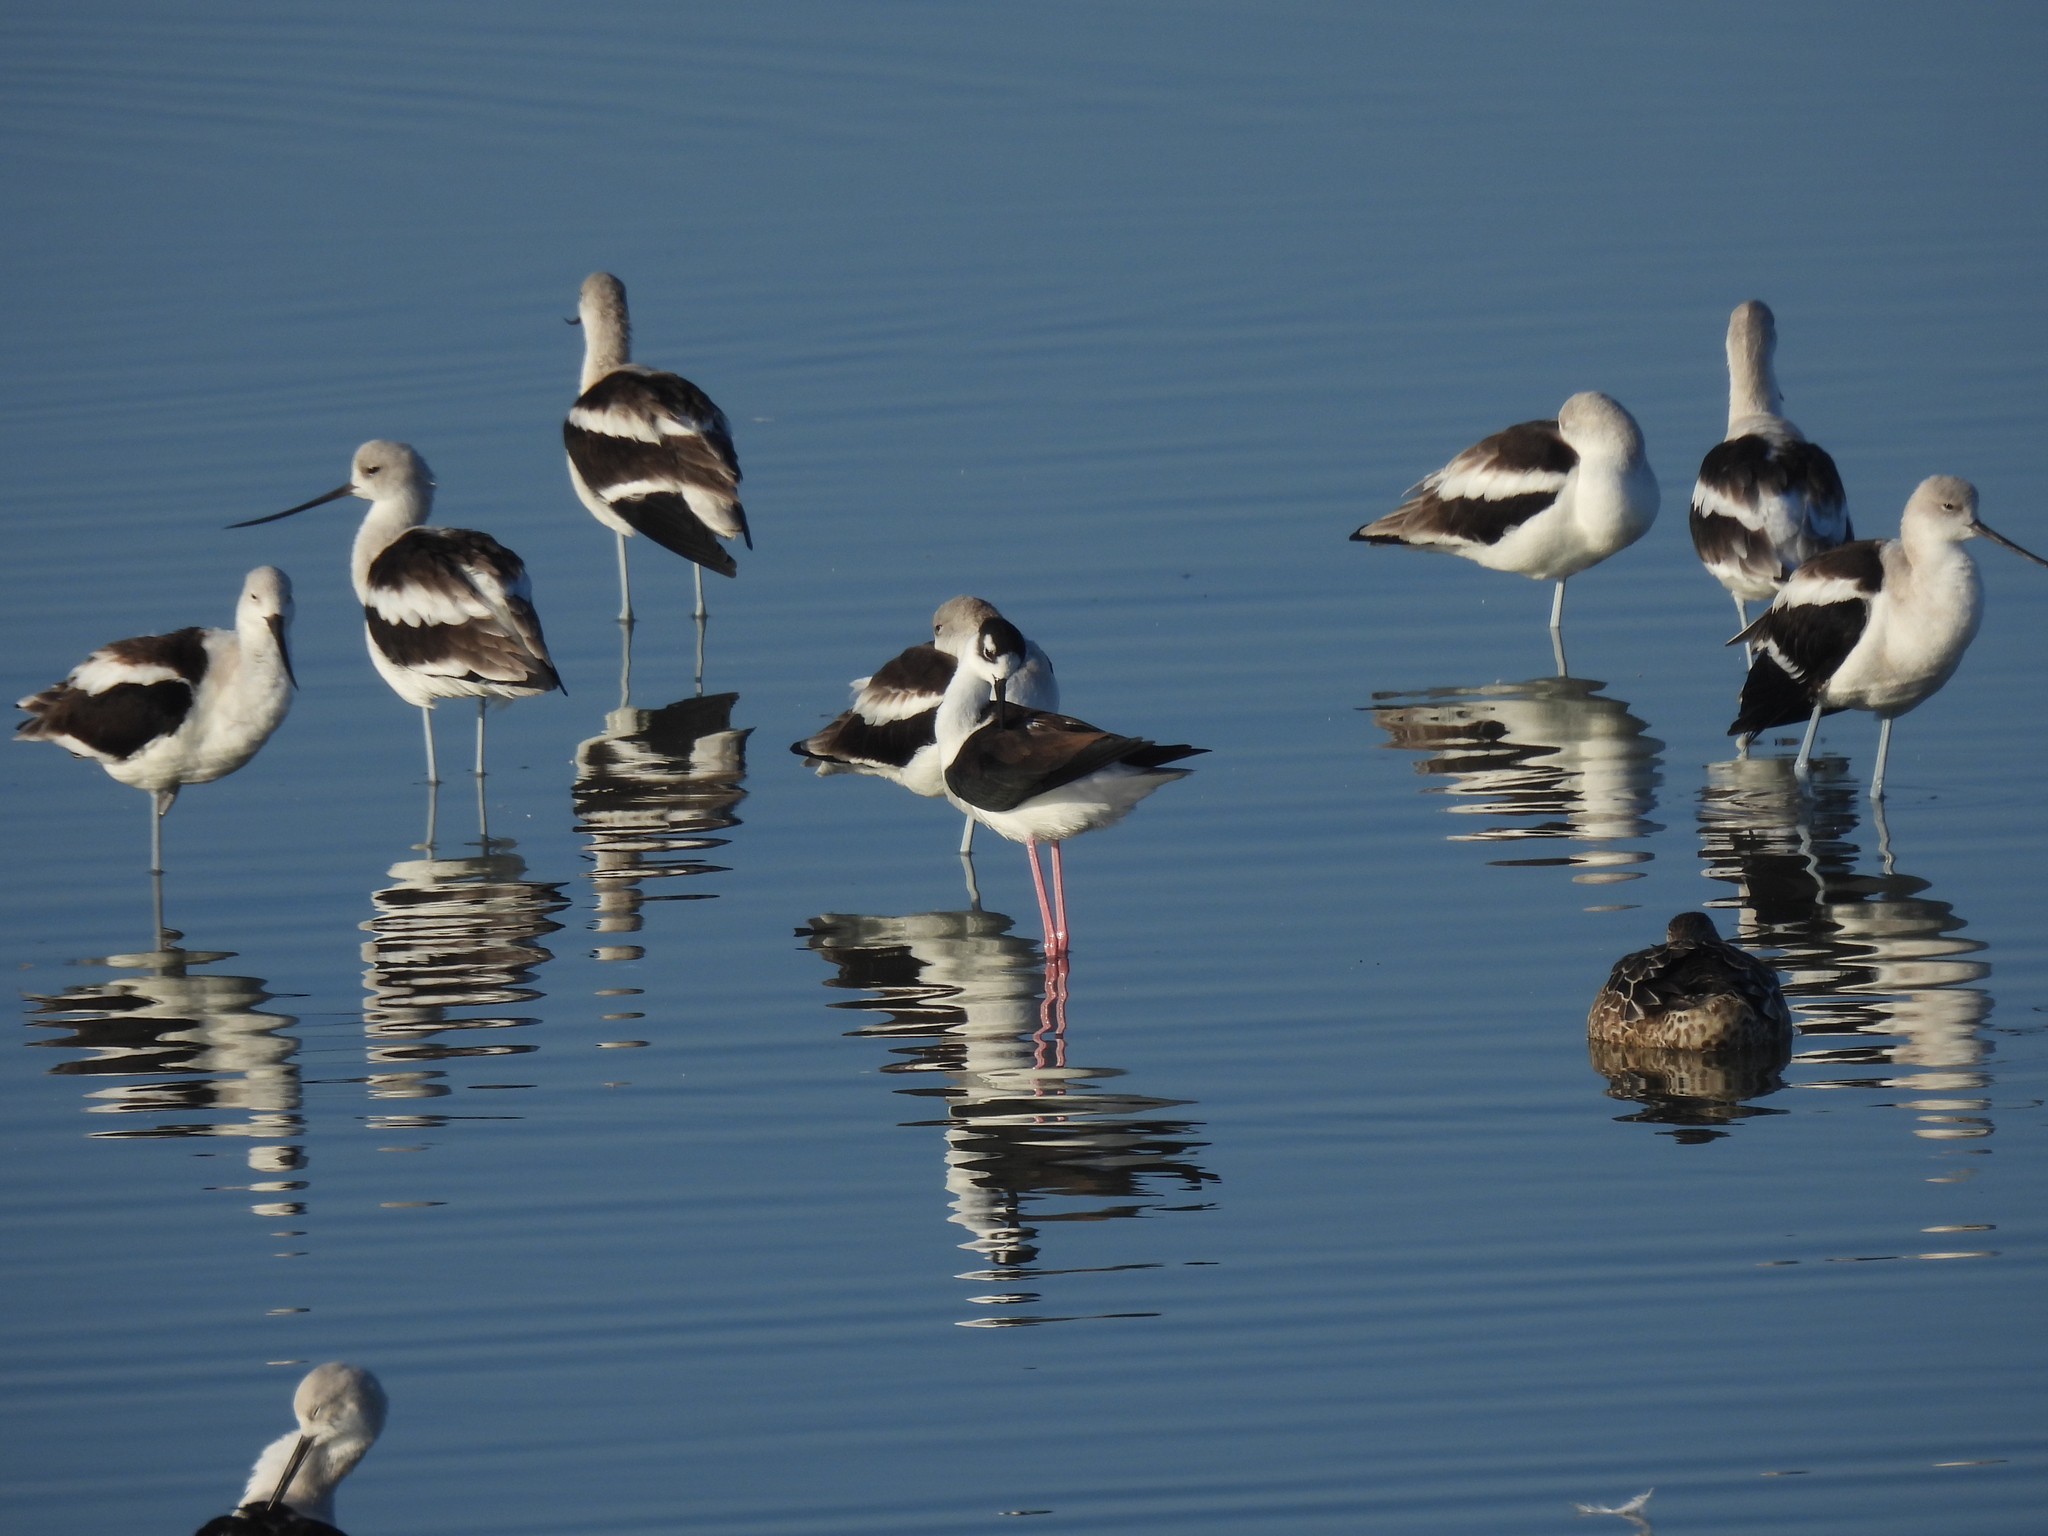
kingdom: Animalia
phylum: Chordata
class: Aves
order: Charadriiformes
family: Recurvirostridae
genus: Himantopus
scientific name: Himantopus mexicanus
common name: Black-necked stilt
